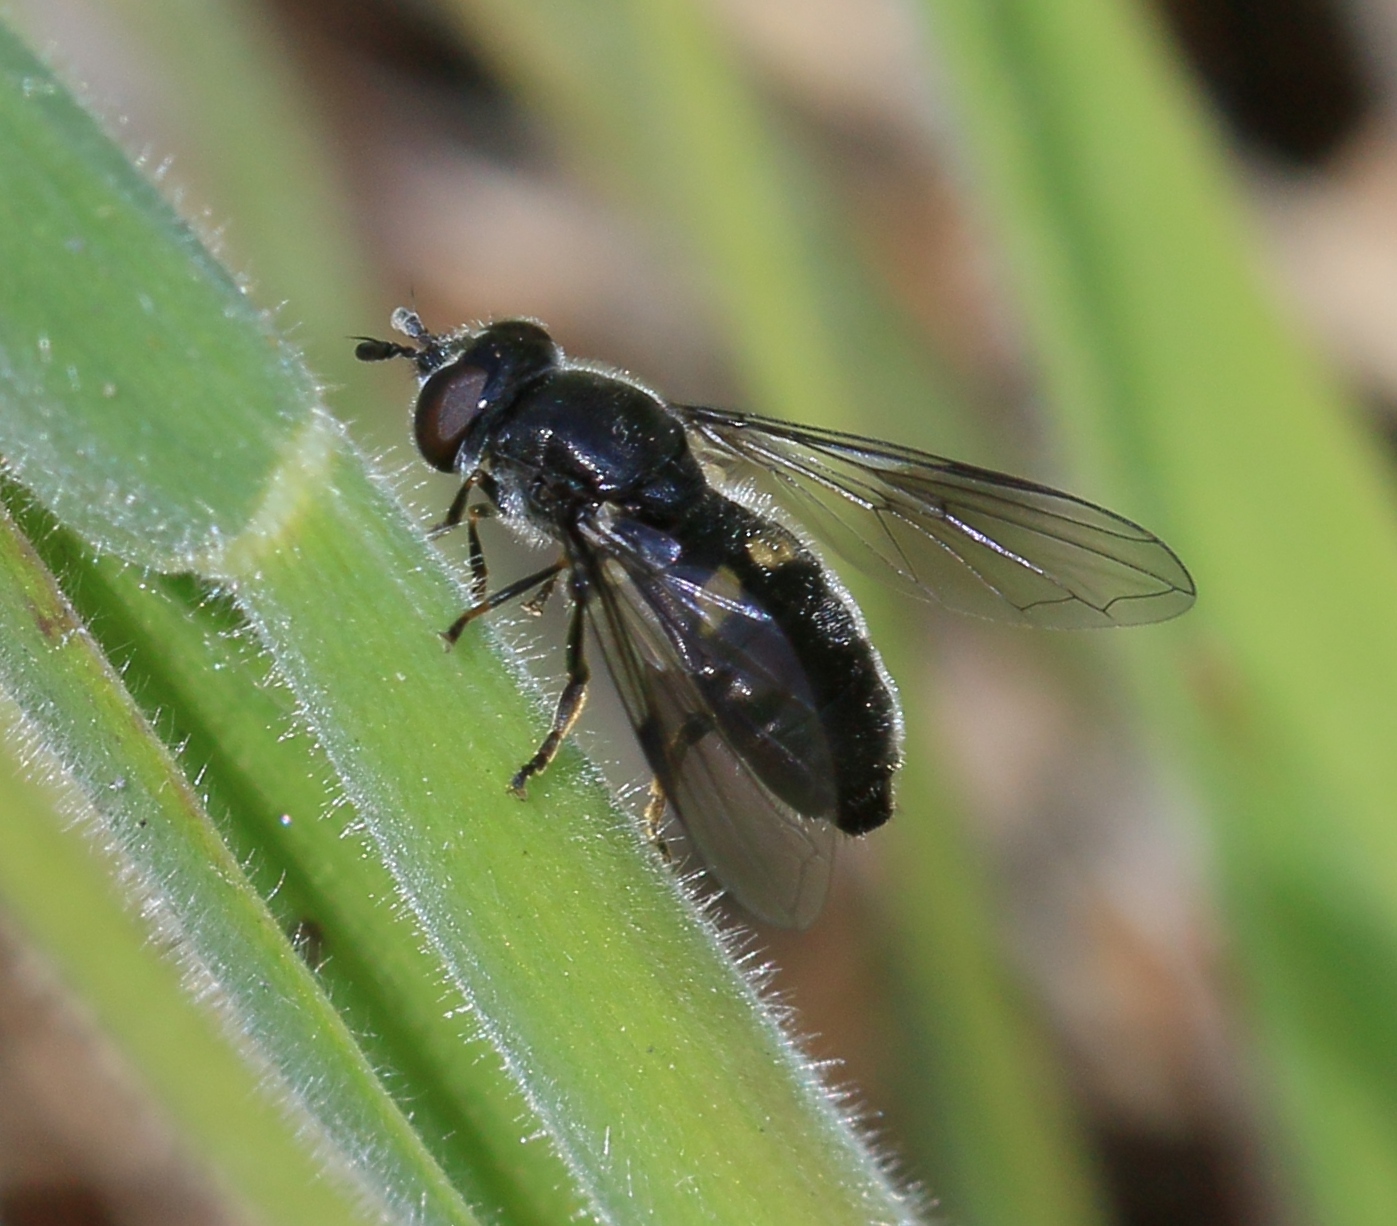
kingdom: Animalia
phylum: Arthropoda
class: Insecta
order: Diptera
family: Syrphidae
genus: Pipiza
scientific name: Pipiza
